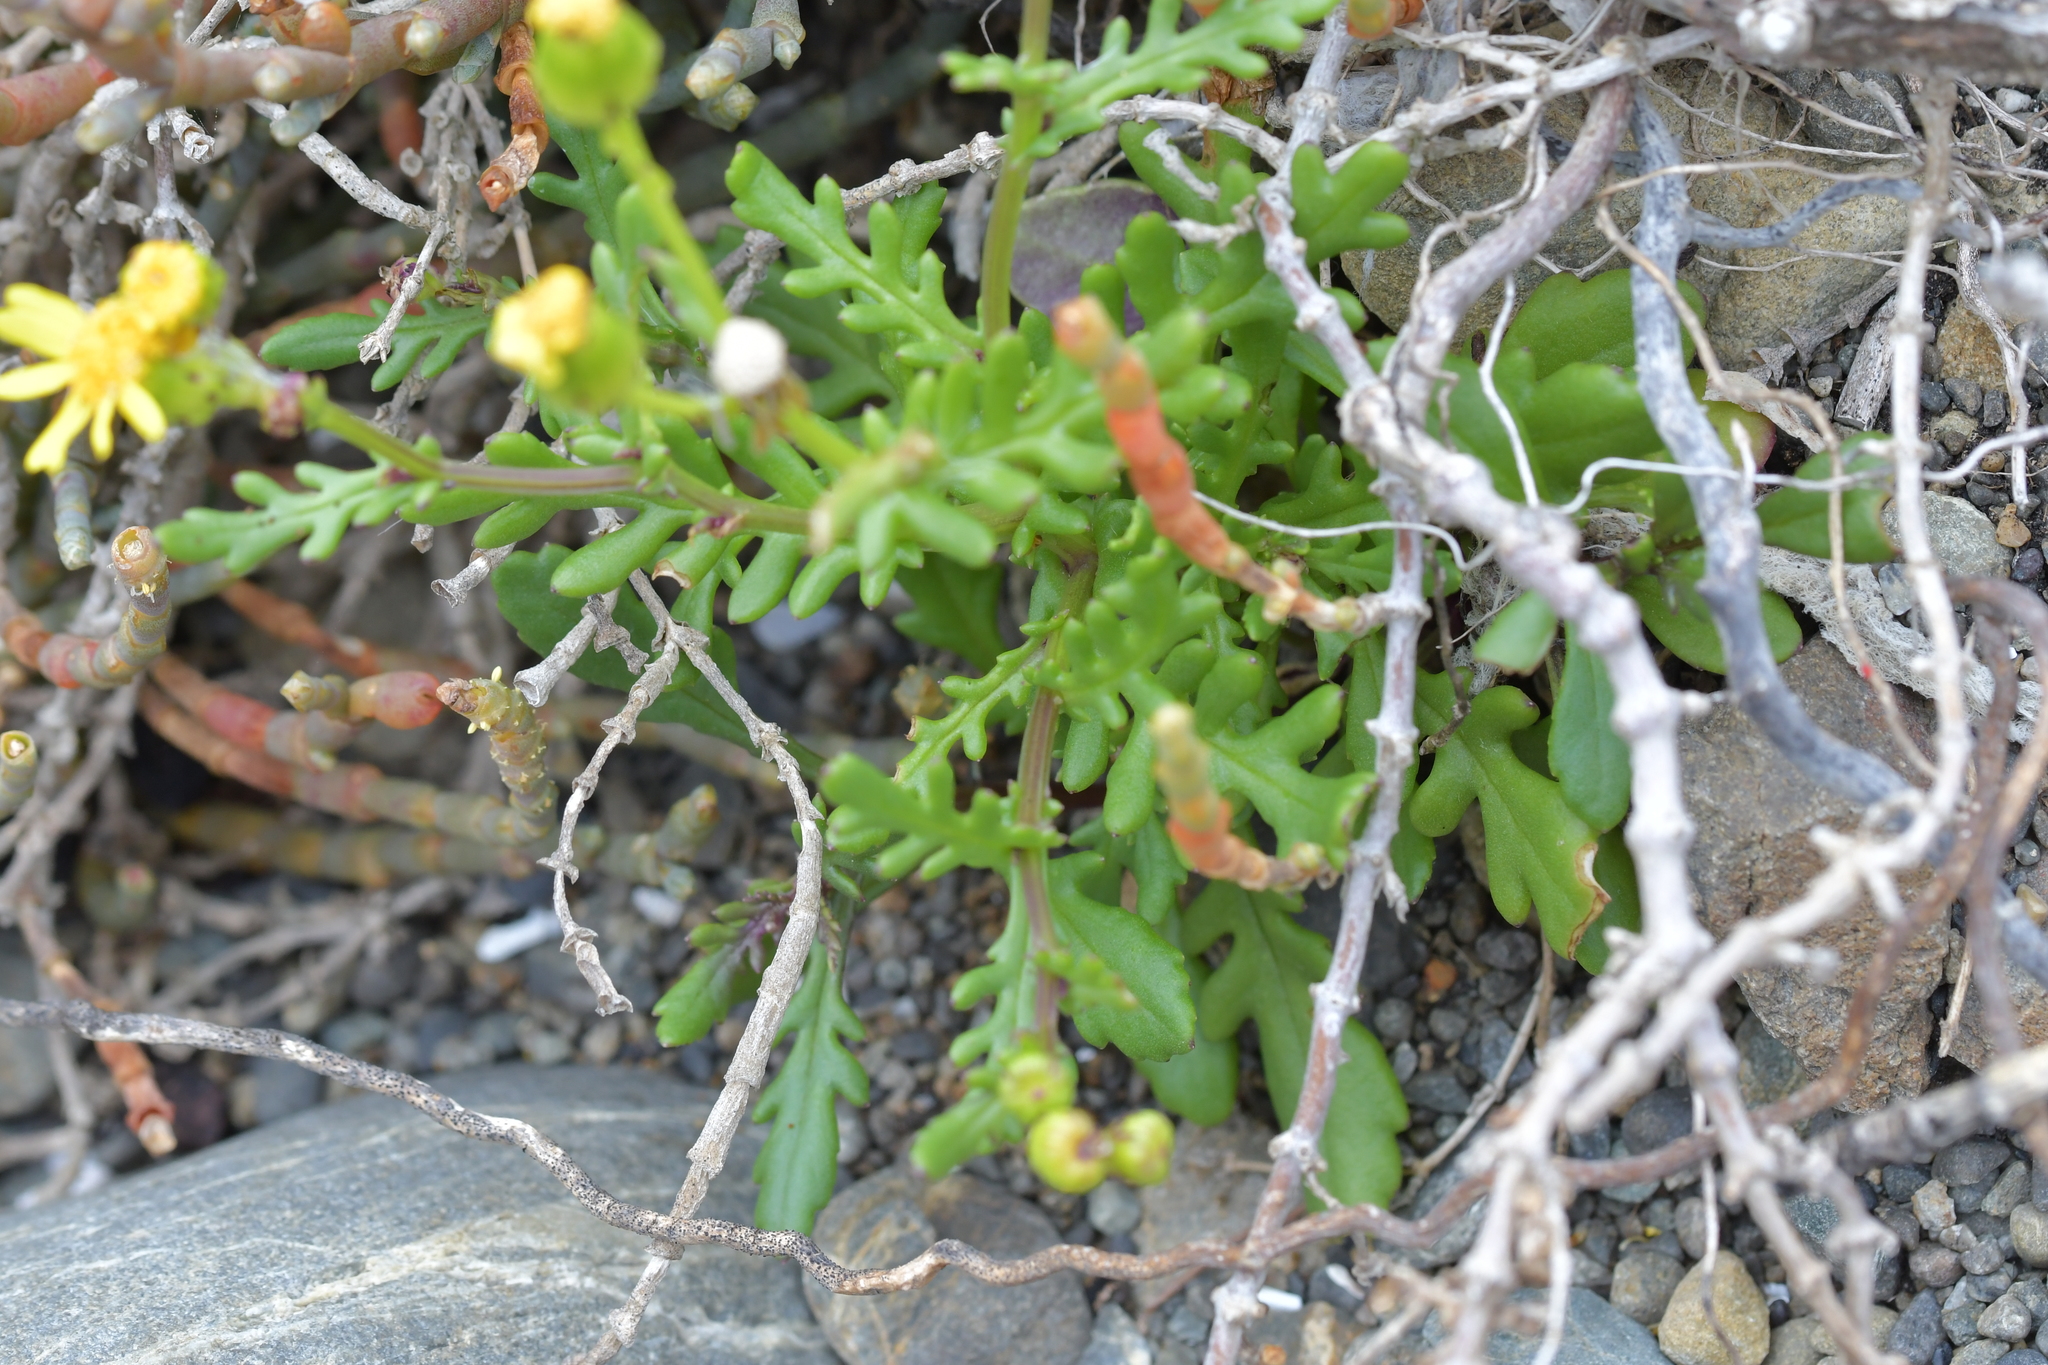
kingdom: Plantae
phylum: Tracheophyta
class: Magnoliopsida
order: Asterales
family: Asteraceae
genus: Senecio
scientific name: Senecio lautus
